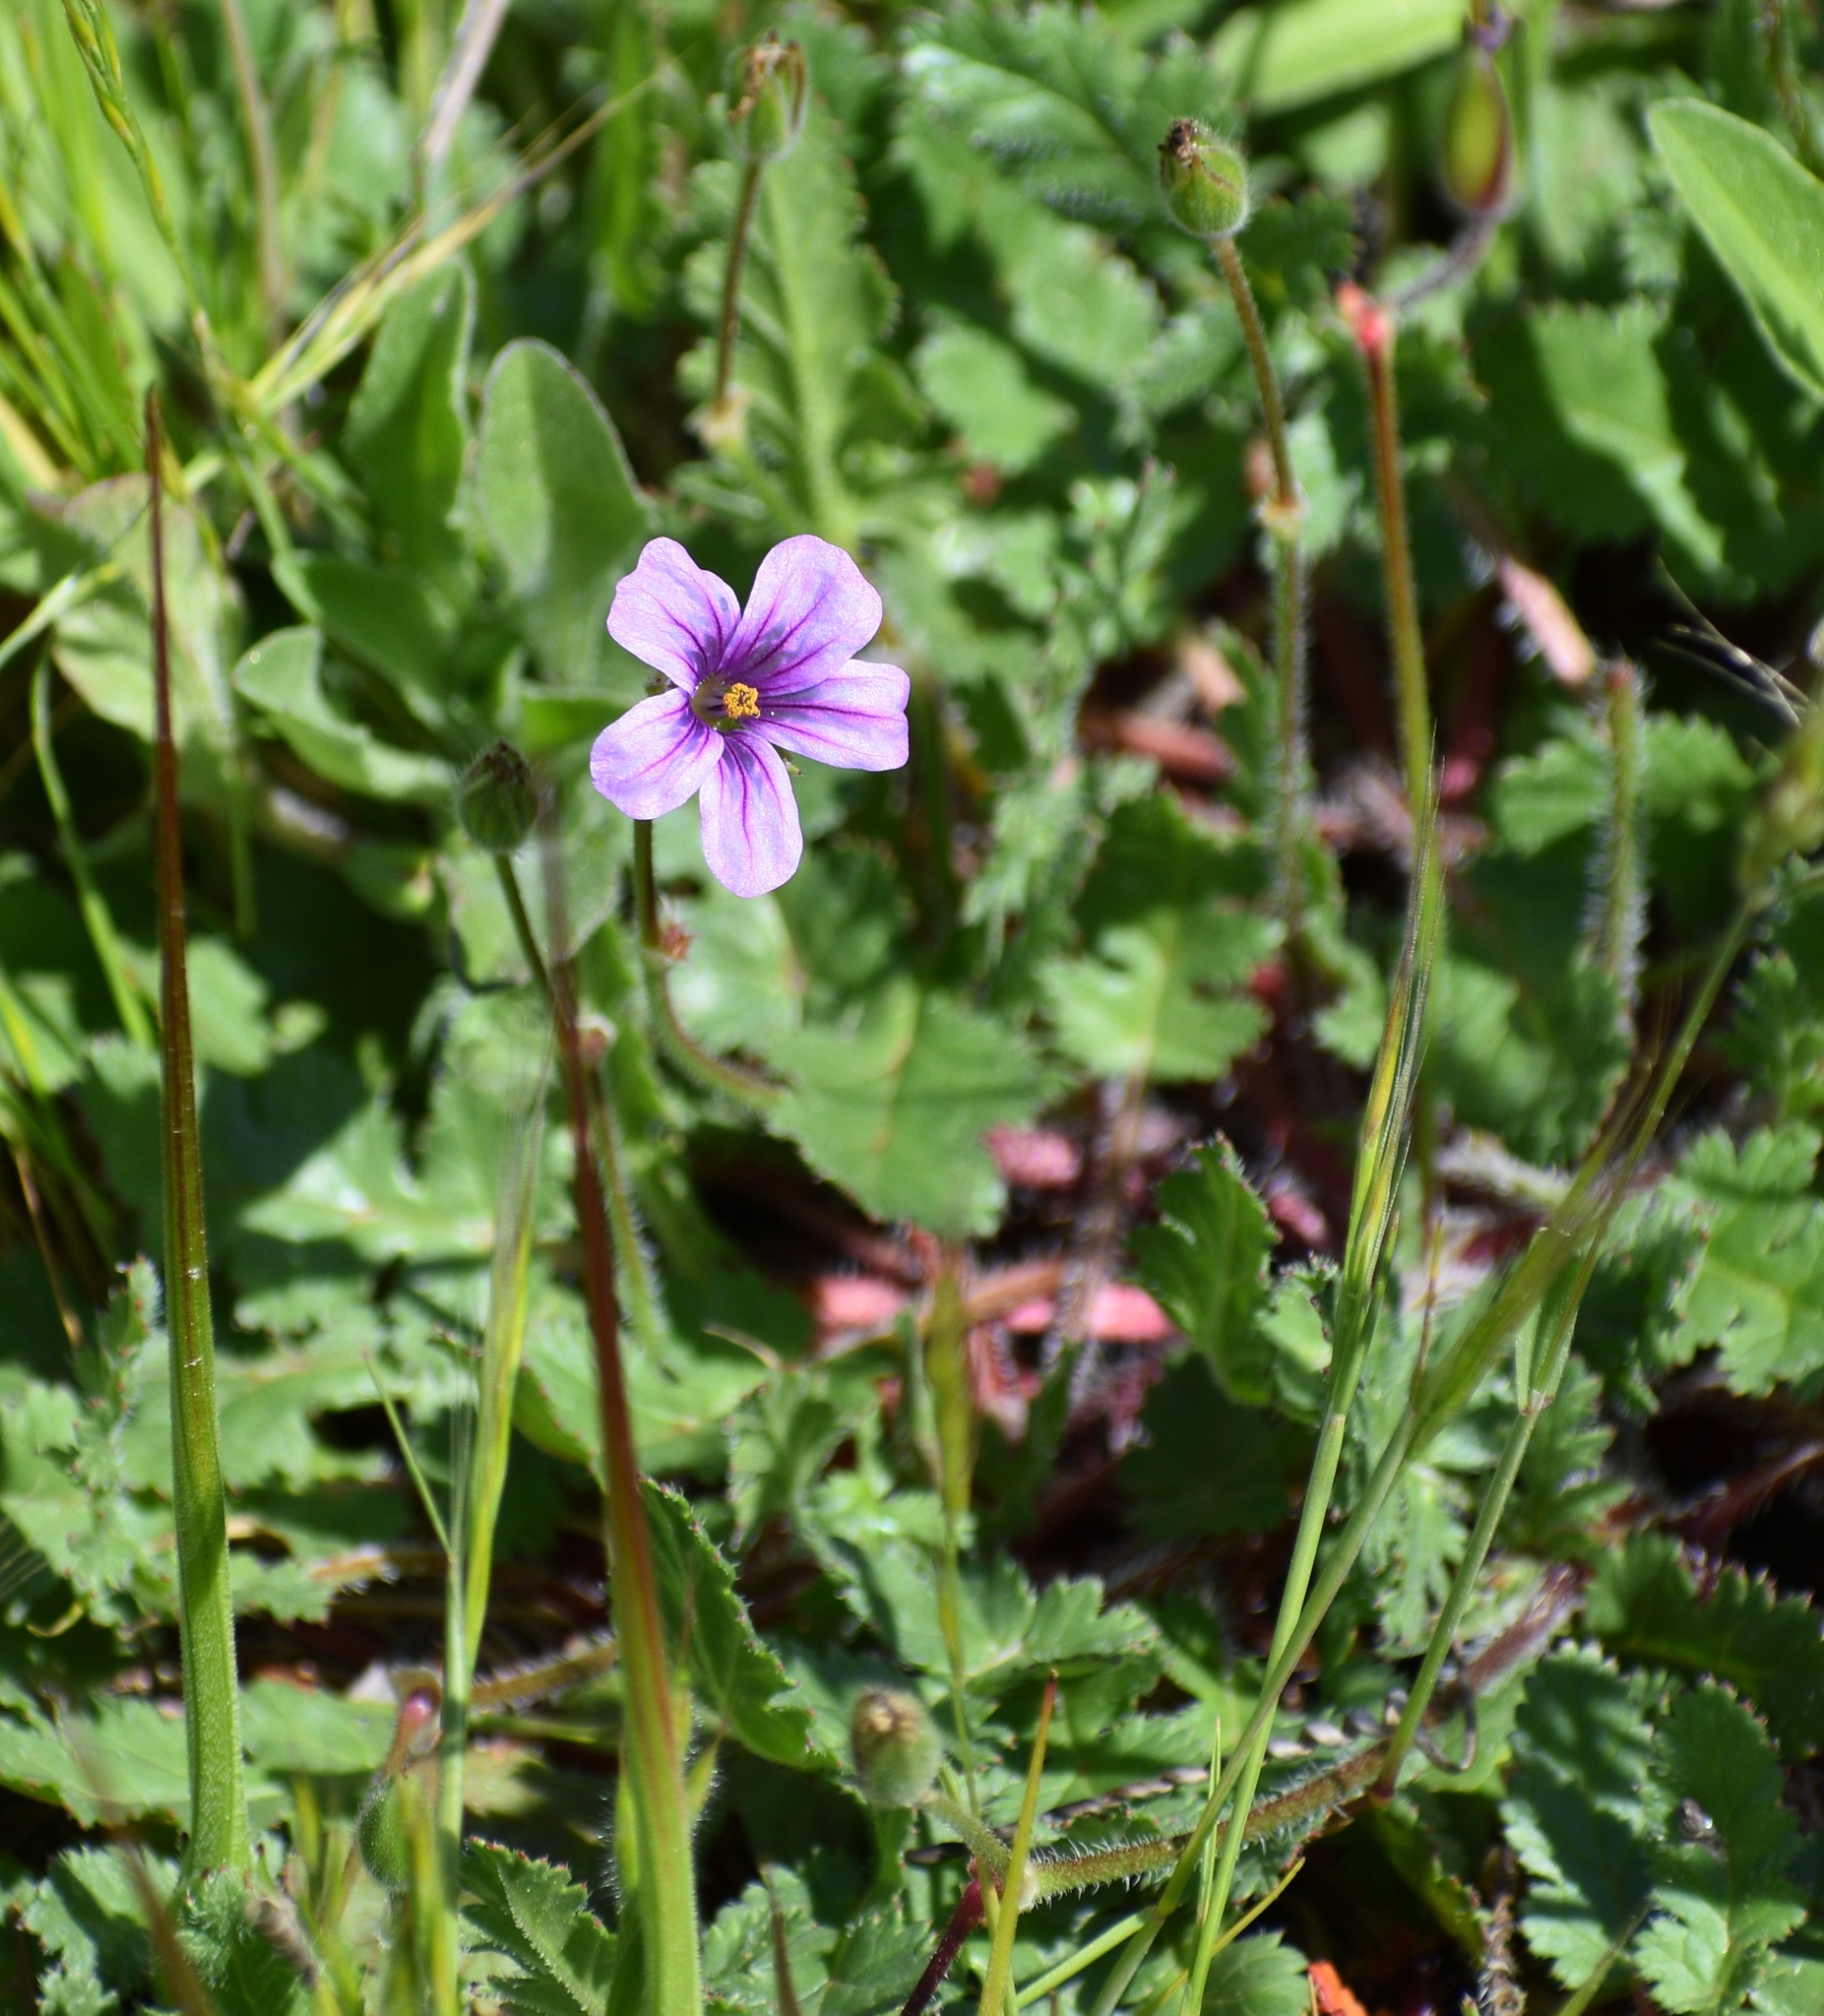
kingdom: Plantae
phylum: Tracheophyta
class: Magnoliopsida
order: Geraniales
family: Geraniaceae
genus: Erodium
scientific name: Erodium botrys
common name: Mediterranean stork's-bill
